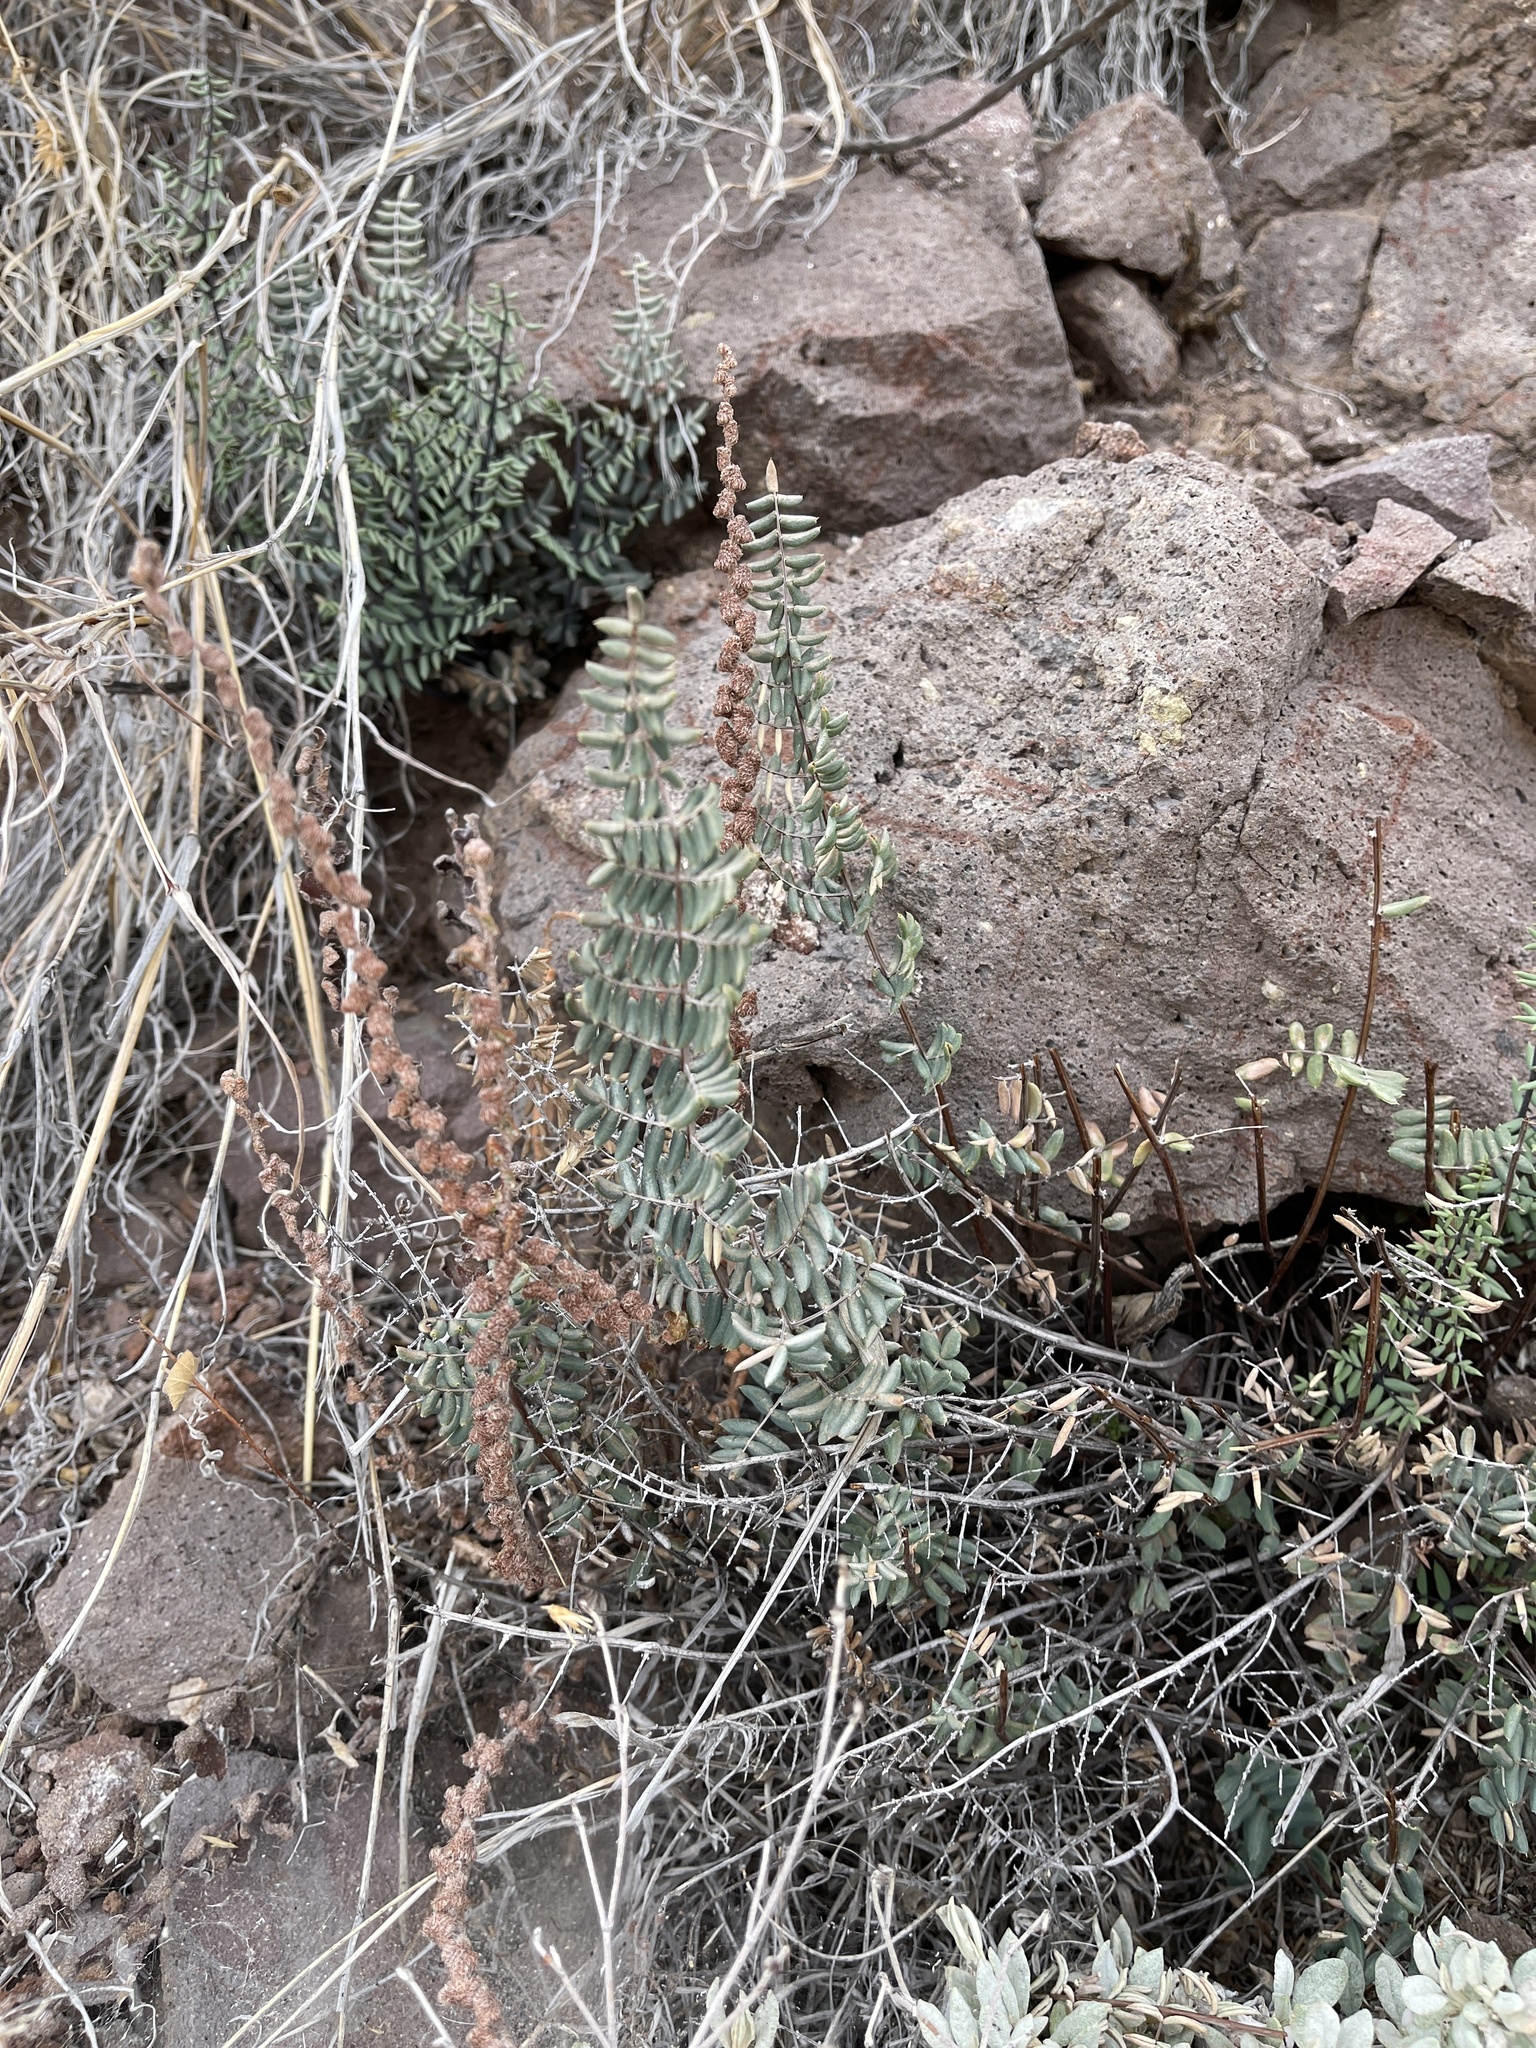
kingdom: Plantae
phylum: Tracheophyta
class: Polypodiopsida
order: Polypodiales
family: Pteridaceae
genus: Pellaea
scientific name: Pellaea truncata
